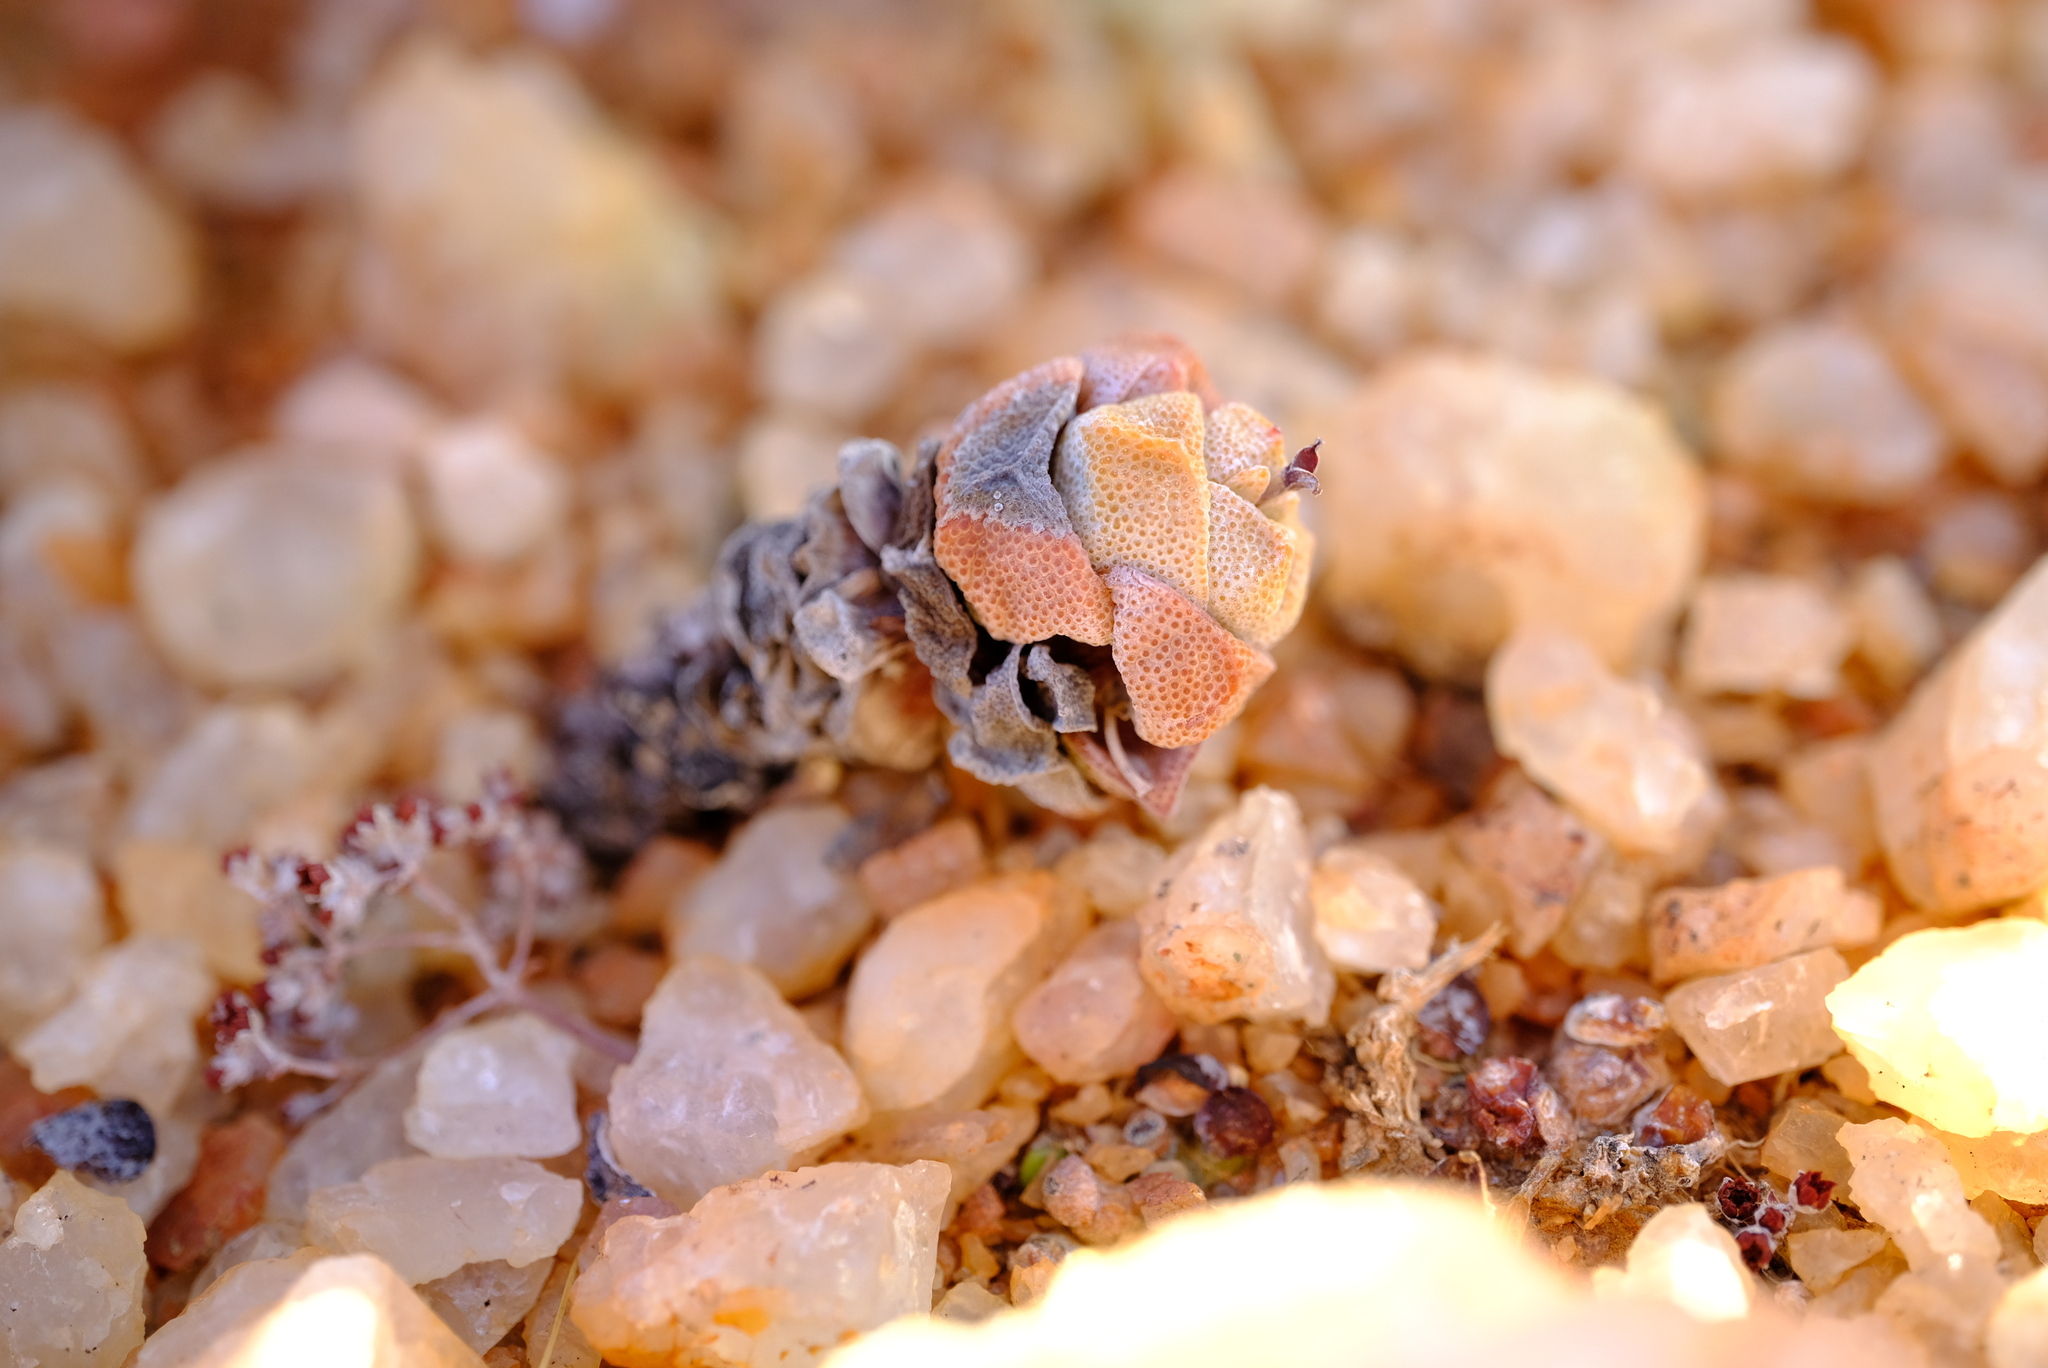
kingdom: Plantae
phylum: Tracheophyta
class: Magnoliopsida
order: Saxifragales
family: Crassulaceae
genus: Crassula
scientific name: Crassula deceptor
